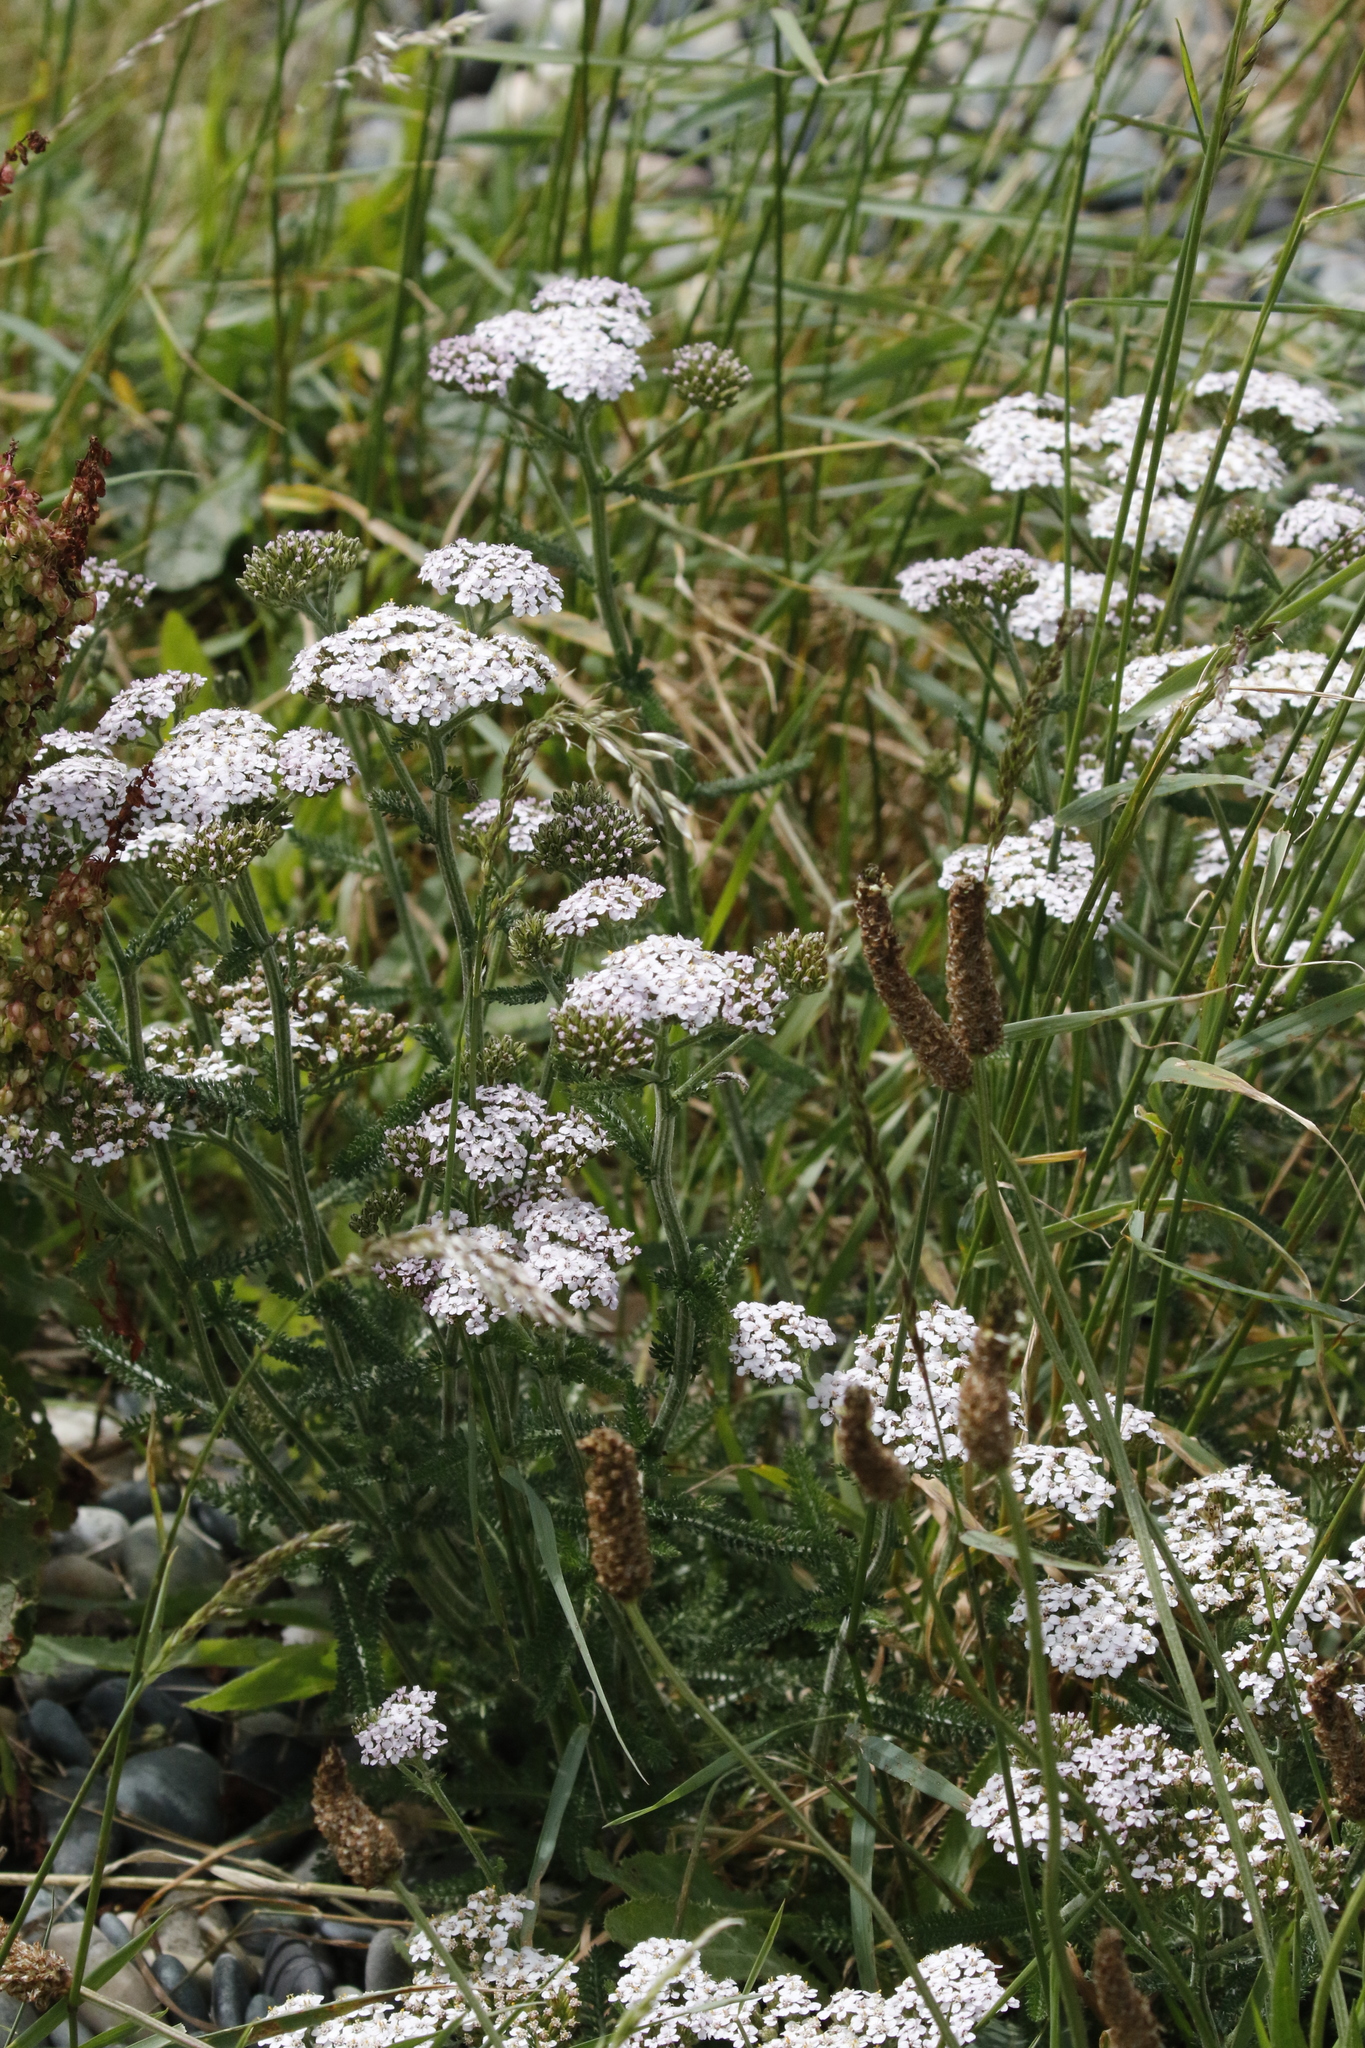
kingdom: Plantae
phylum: Tracheophyta
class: Magnoliopsida
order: Asterales
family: Asteraceae
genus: Achillea
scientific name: Achillea millefolium
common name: Yarrow
